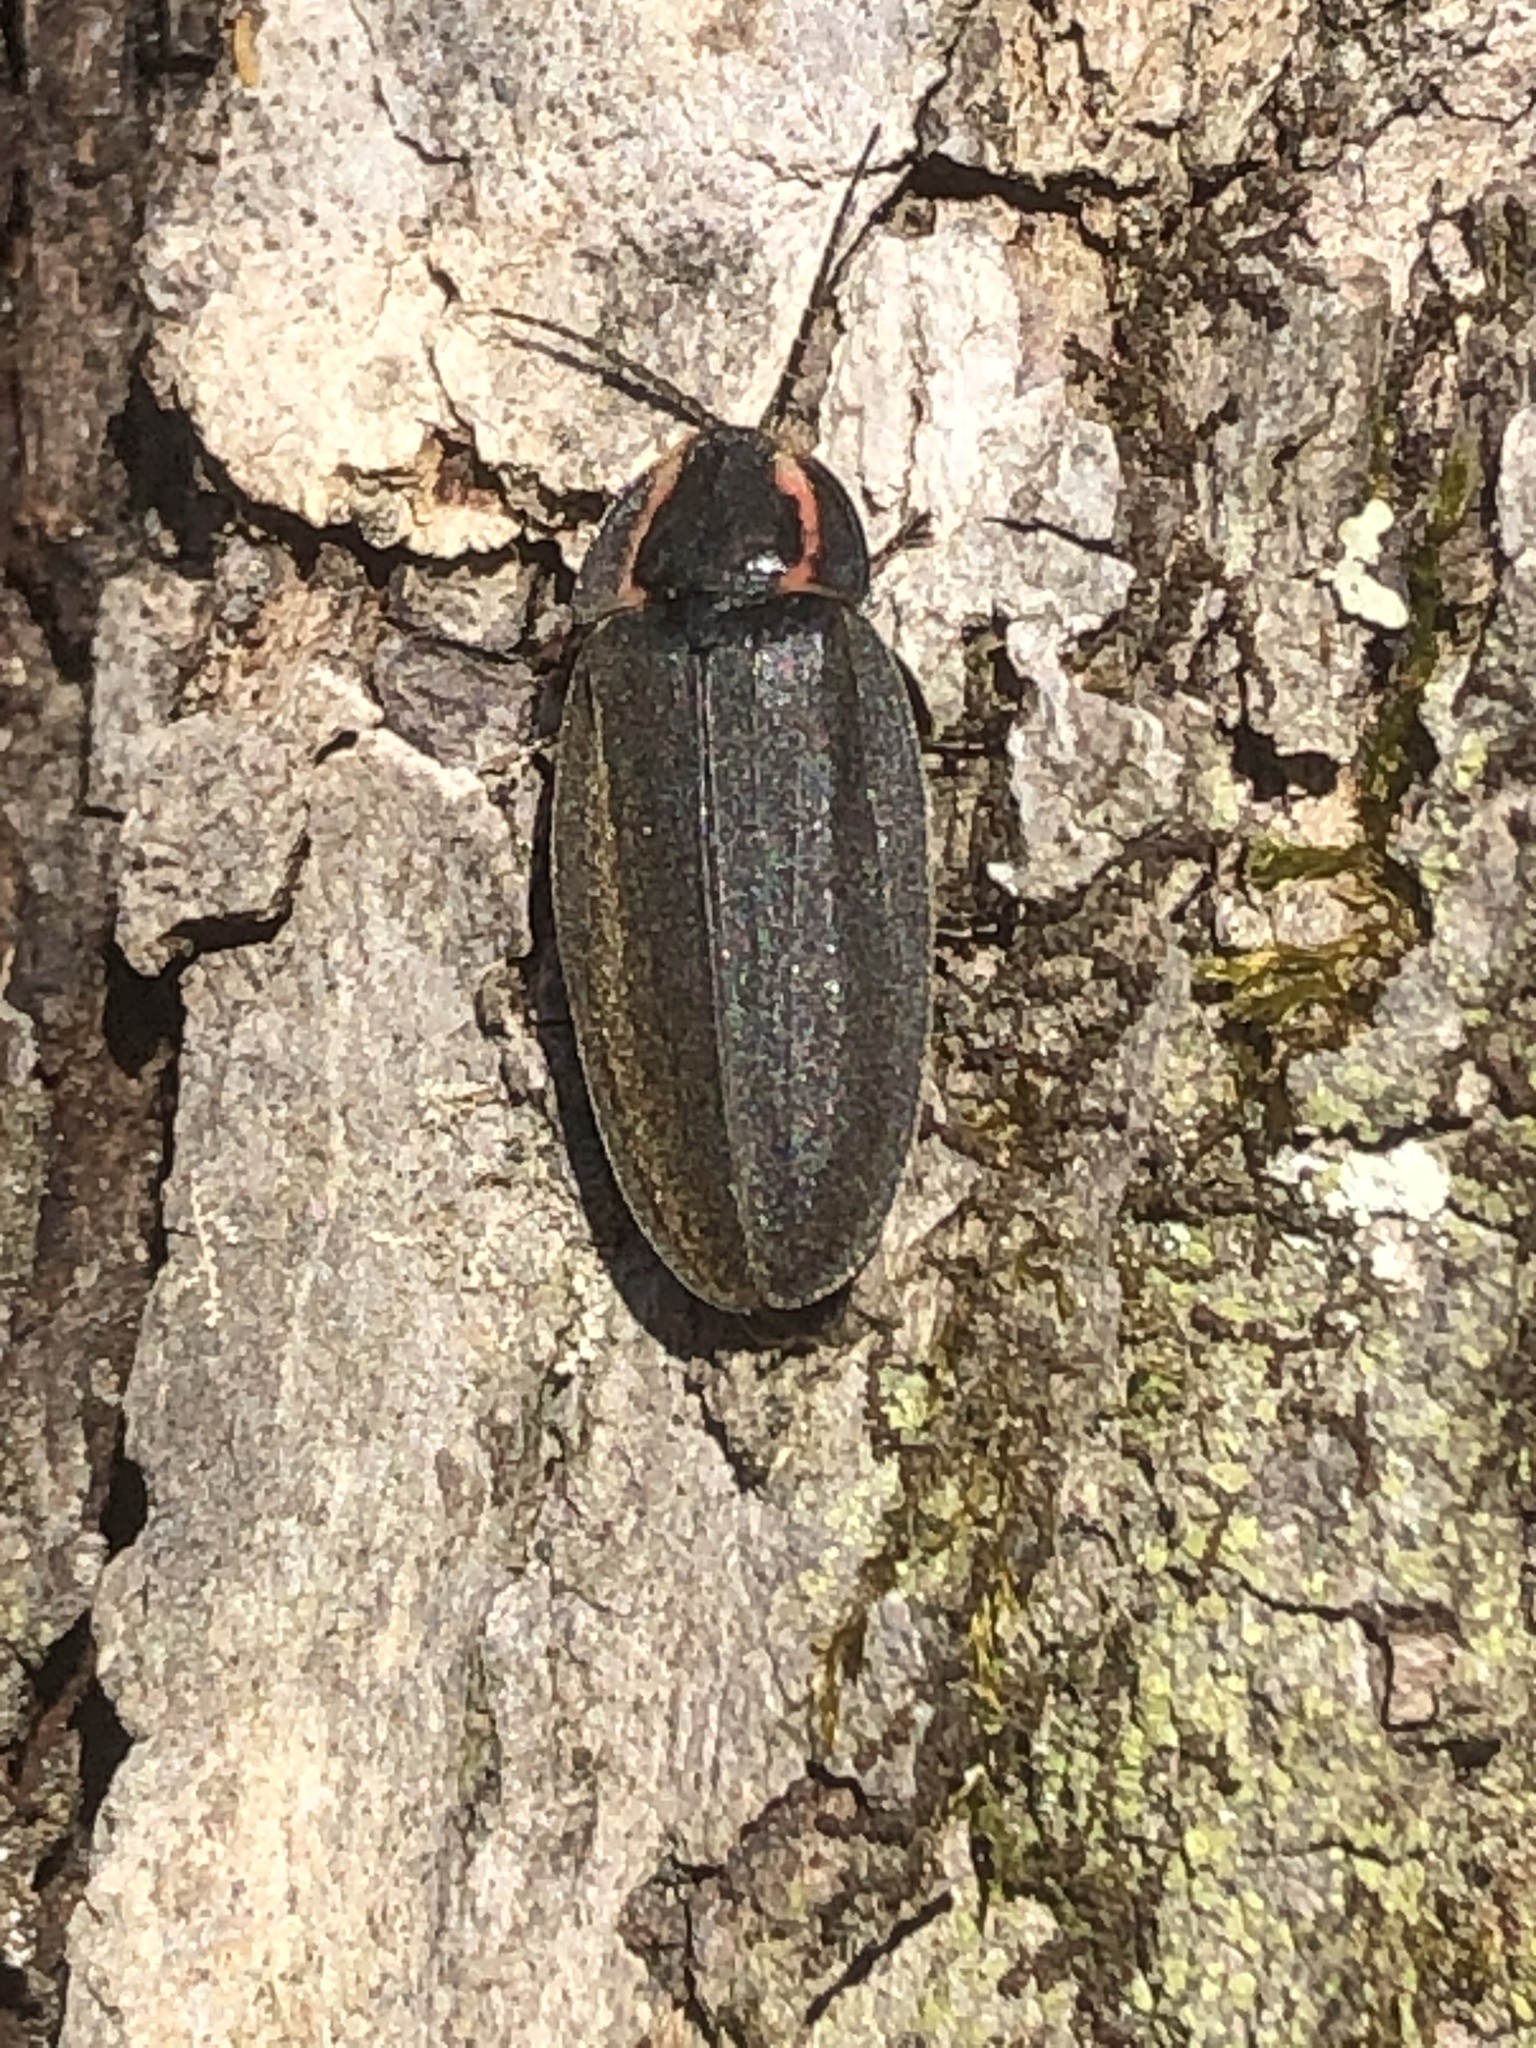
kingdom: Animalia
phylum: Arthropoda
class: Insecta
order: Coleoptera
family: Lampyridae
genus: Photinus
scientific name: Photinus corrusca
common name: Winter firefly
